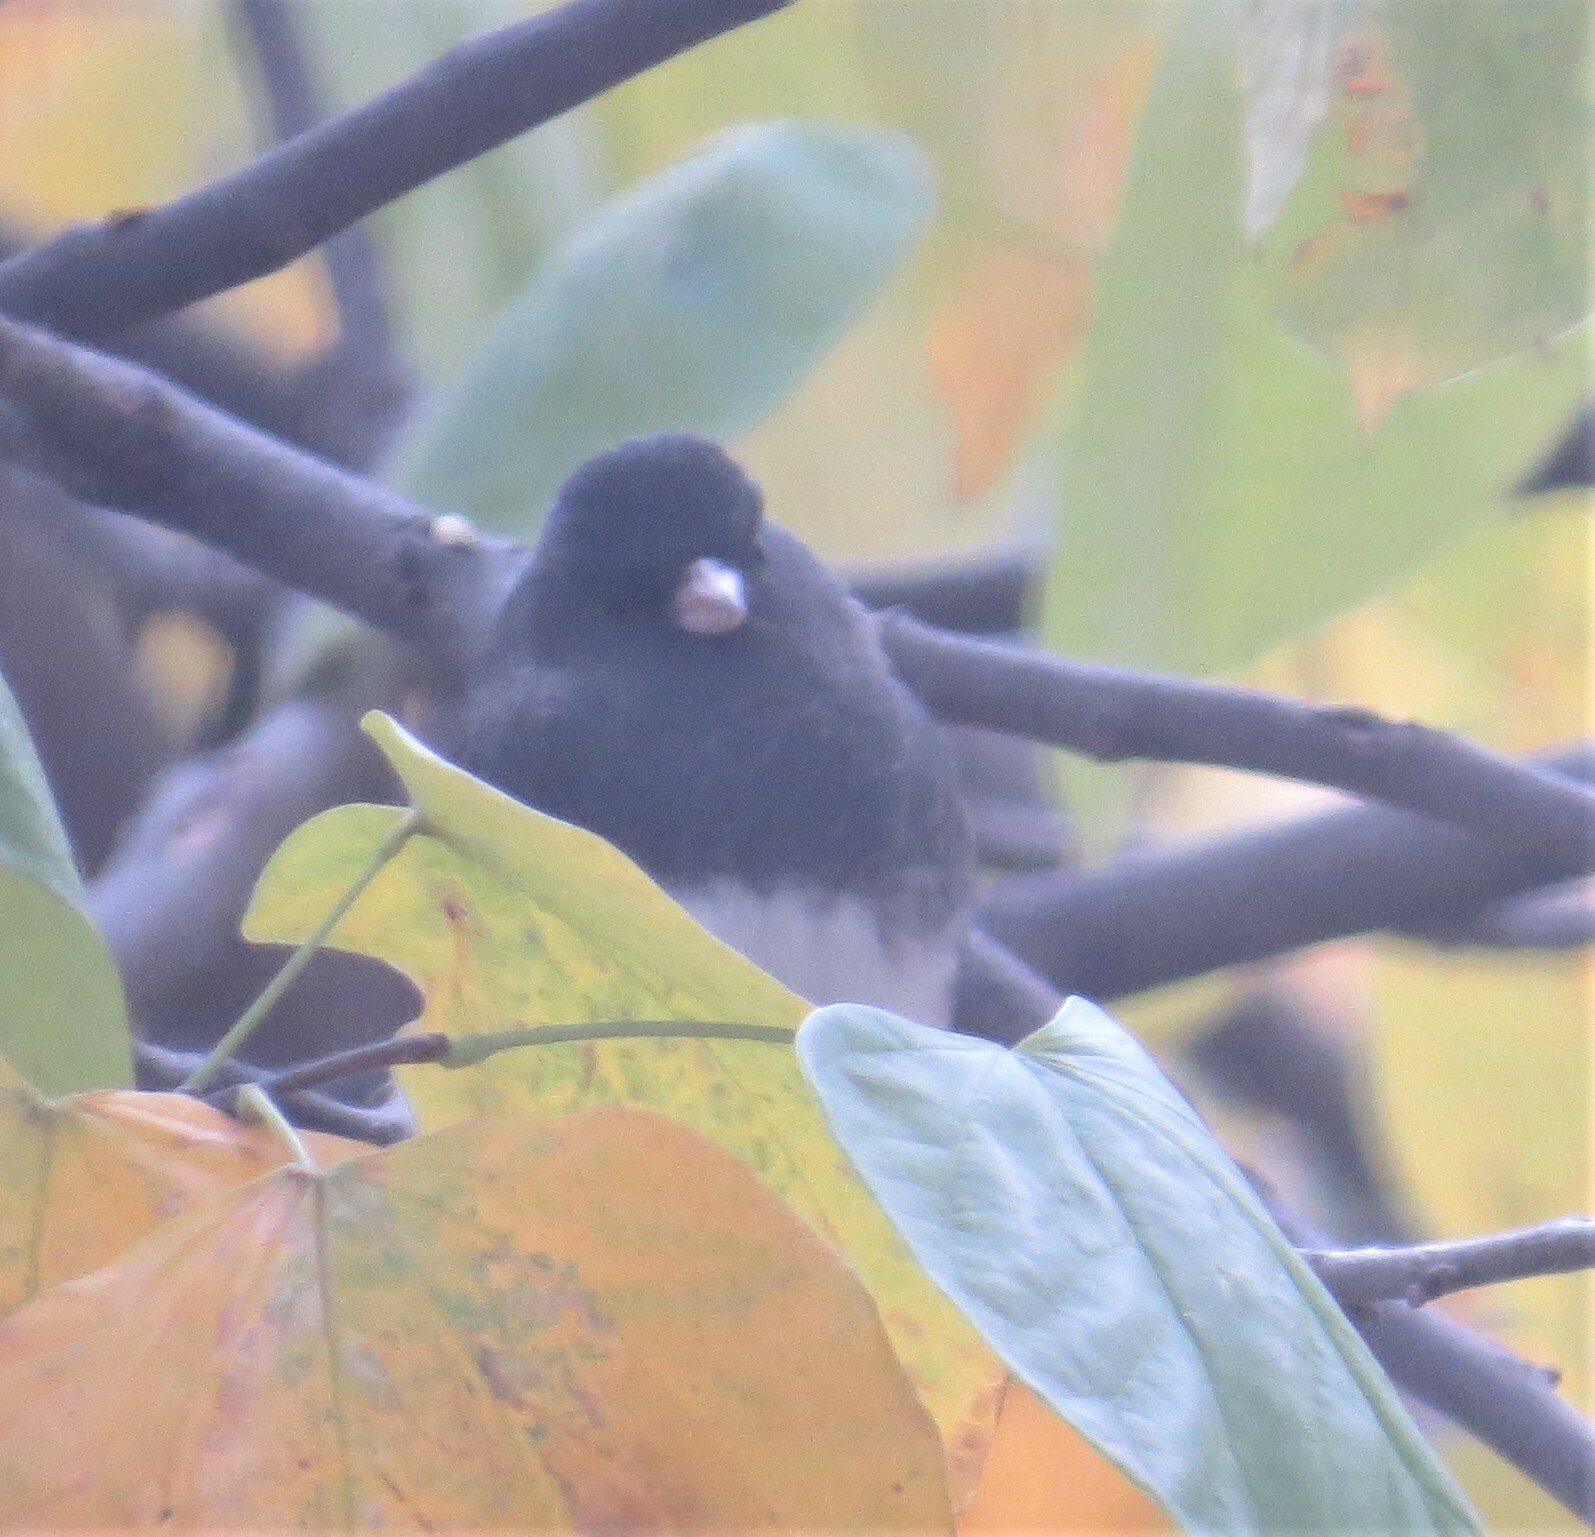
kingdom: Animalia
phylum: Chordata
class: Aves
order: Passeriformes
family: Passerellidae
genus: Junco
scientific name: Junco hyemalis
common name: Dark-eyed junco
